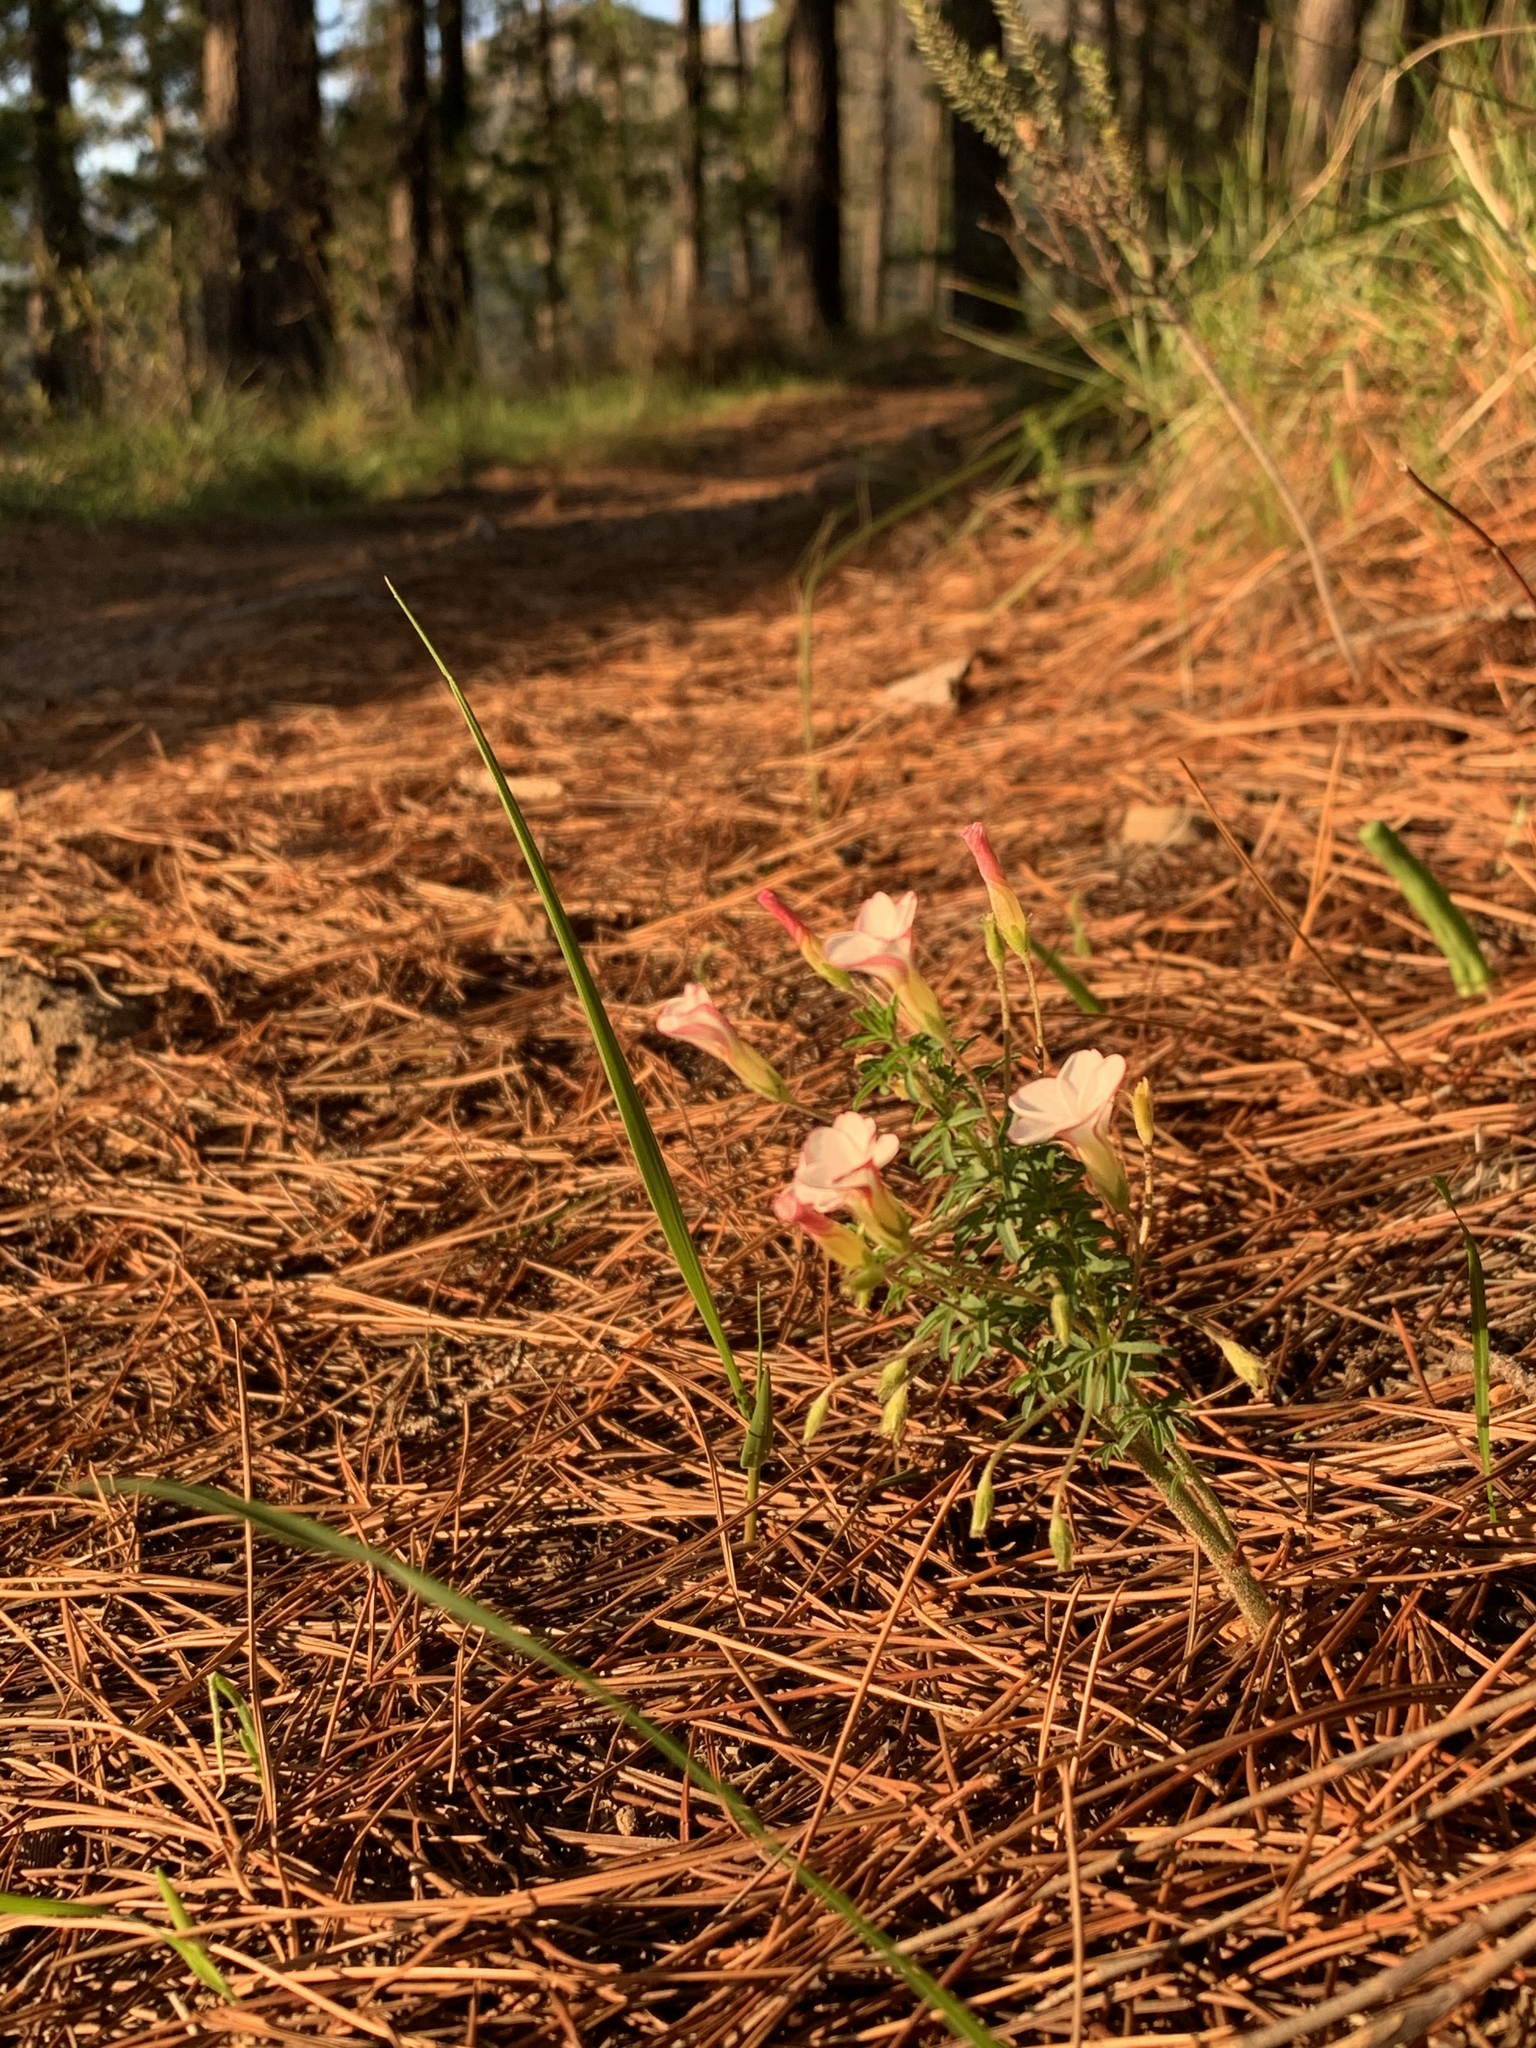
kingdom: Plantae
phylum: Tracheophyta
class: Magnoliopsida
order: Oxalidales
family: Oxalidaceae
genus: Oxalis
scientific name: Oxalis tenuifolia
